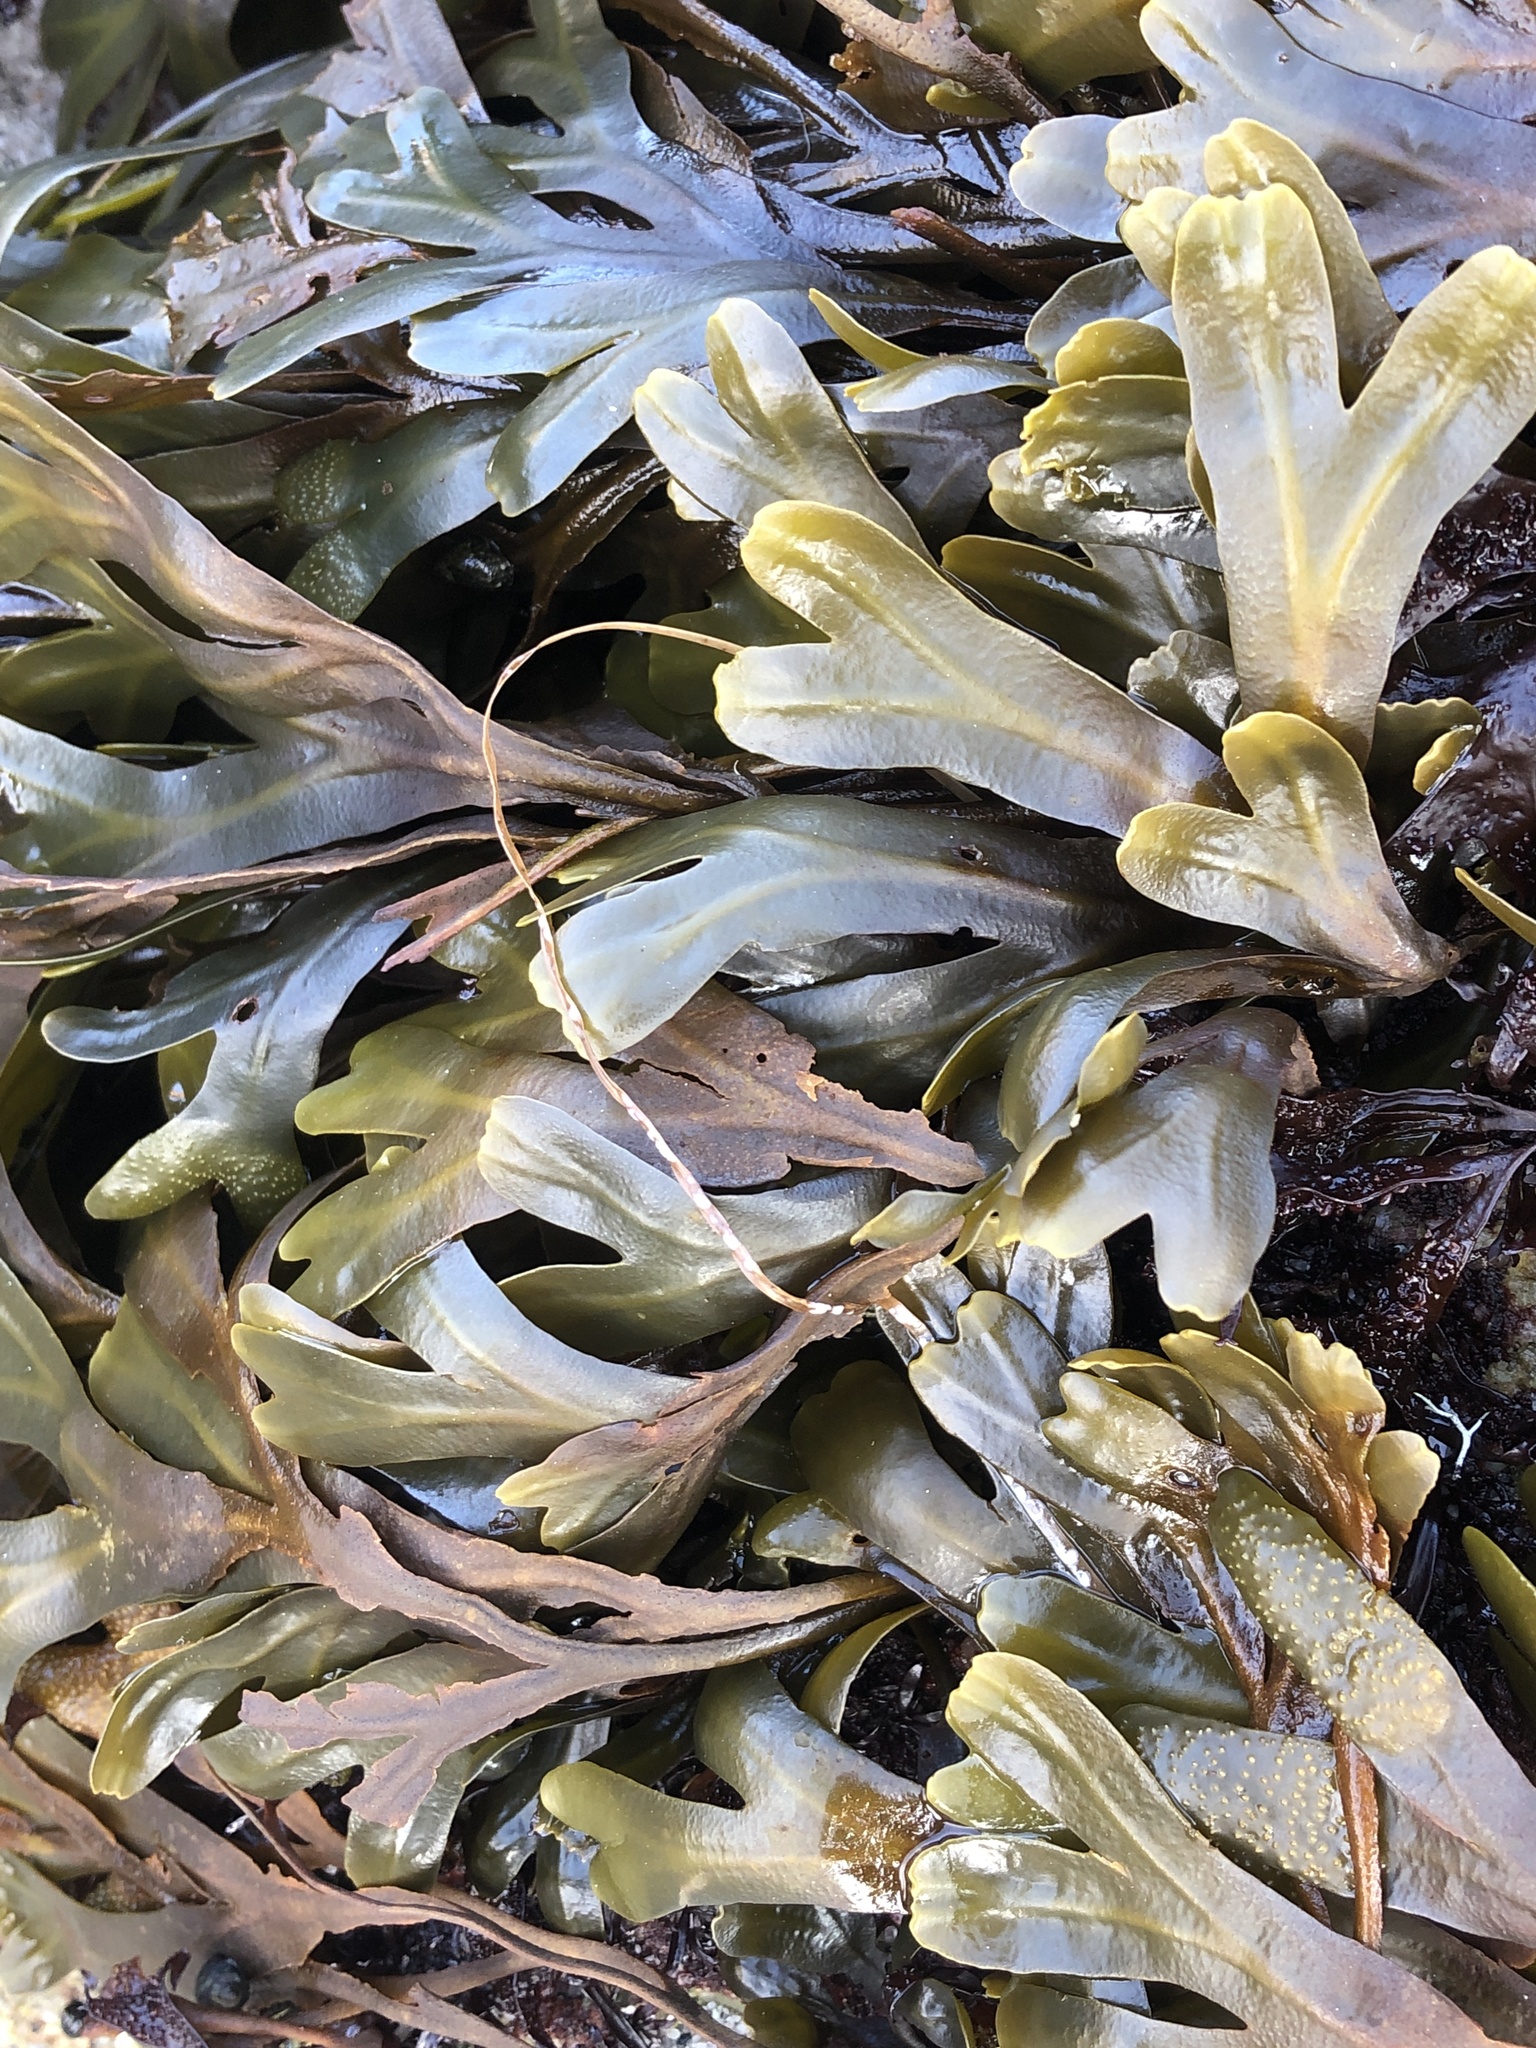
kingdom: Chromista
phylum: Ochrophyta
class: Phaeophyceae
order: Fucales
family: Fucaceae
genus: Fucus
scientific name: Fucus distichus
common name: Rockweed
